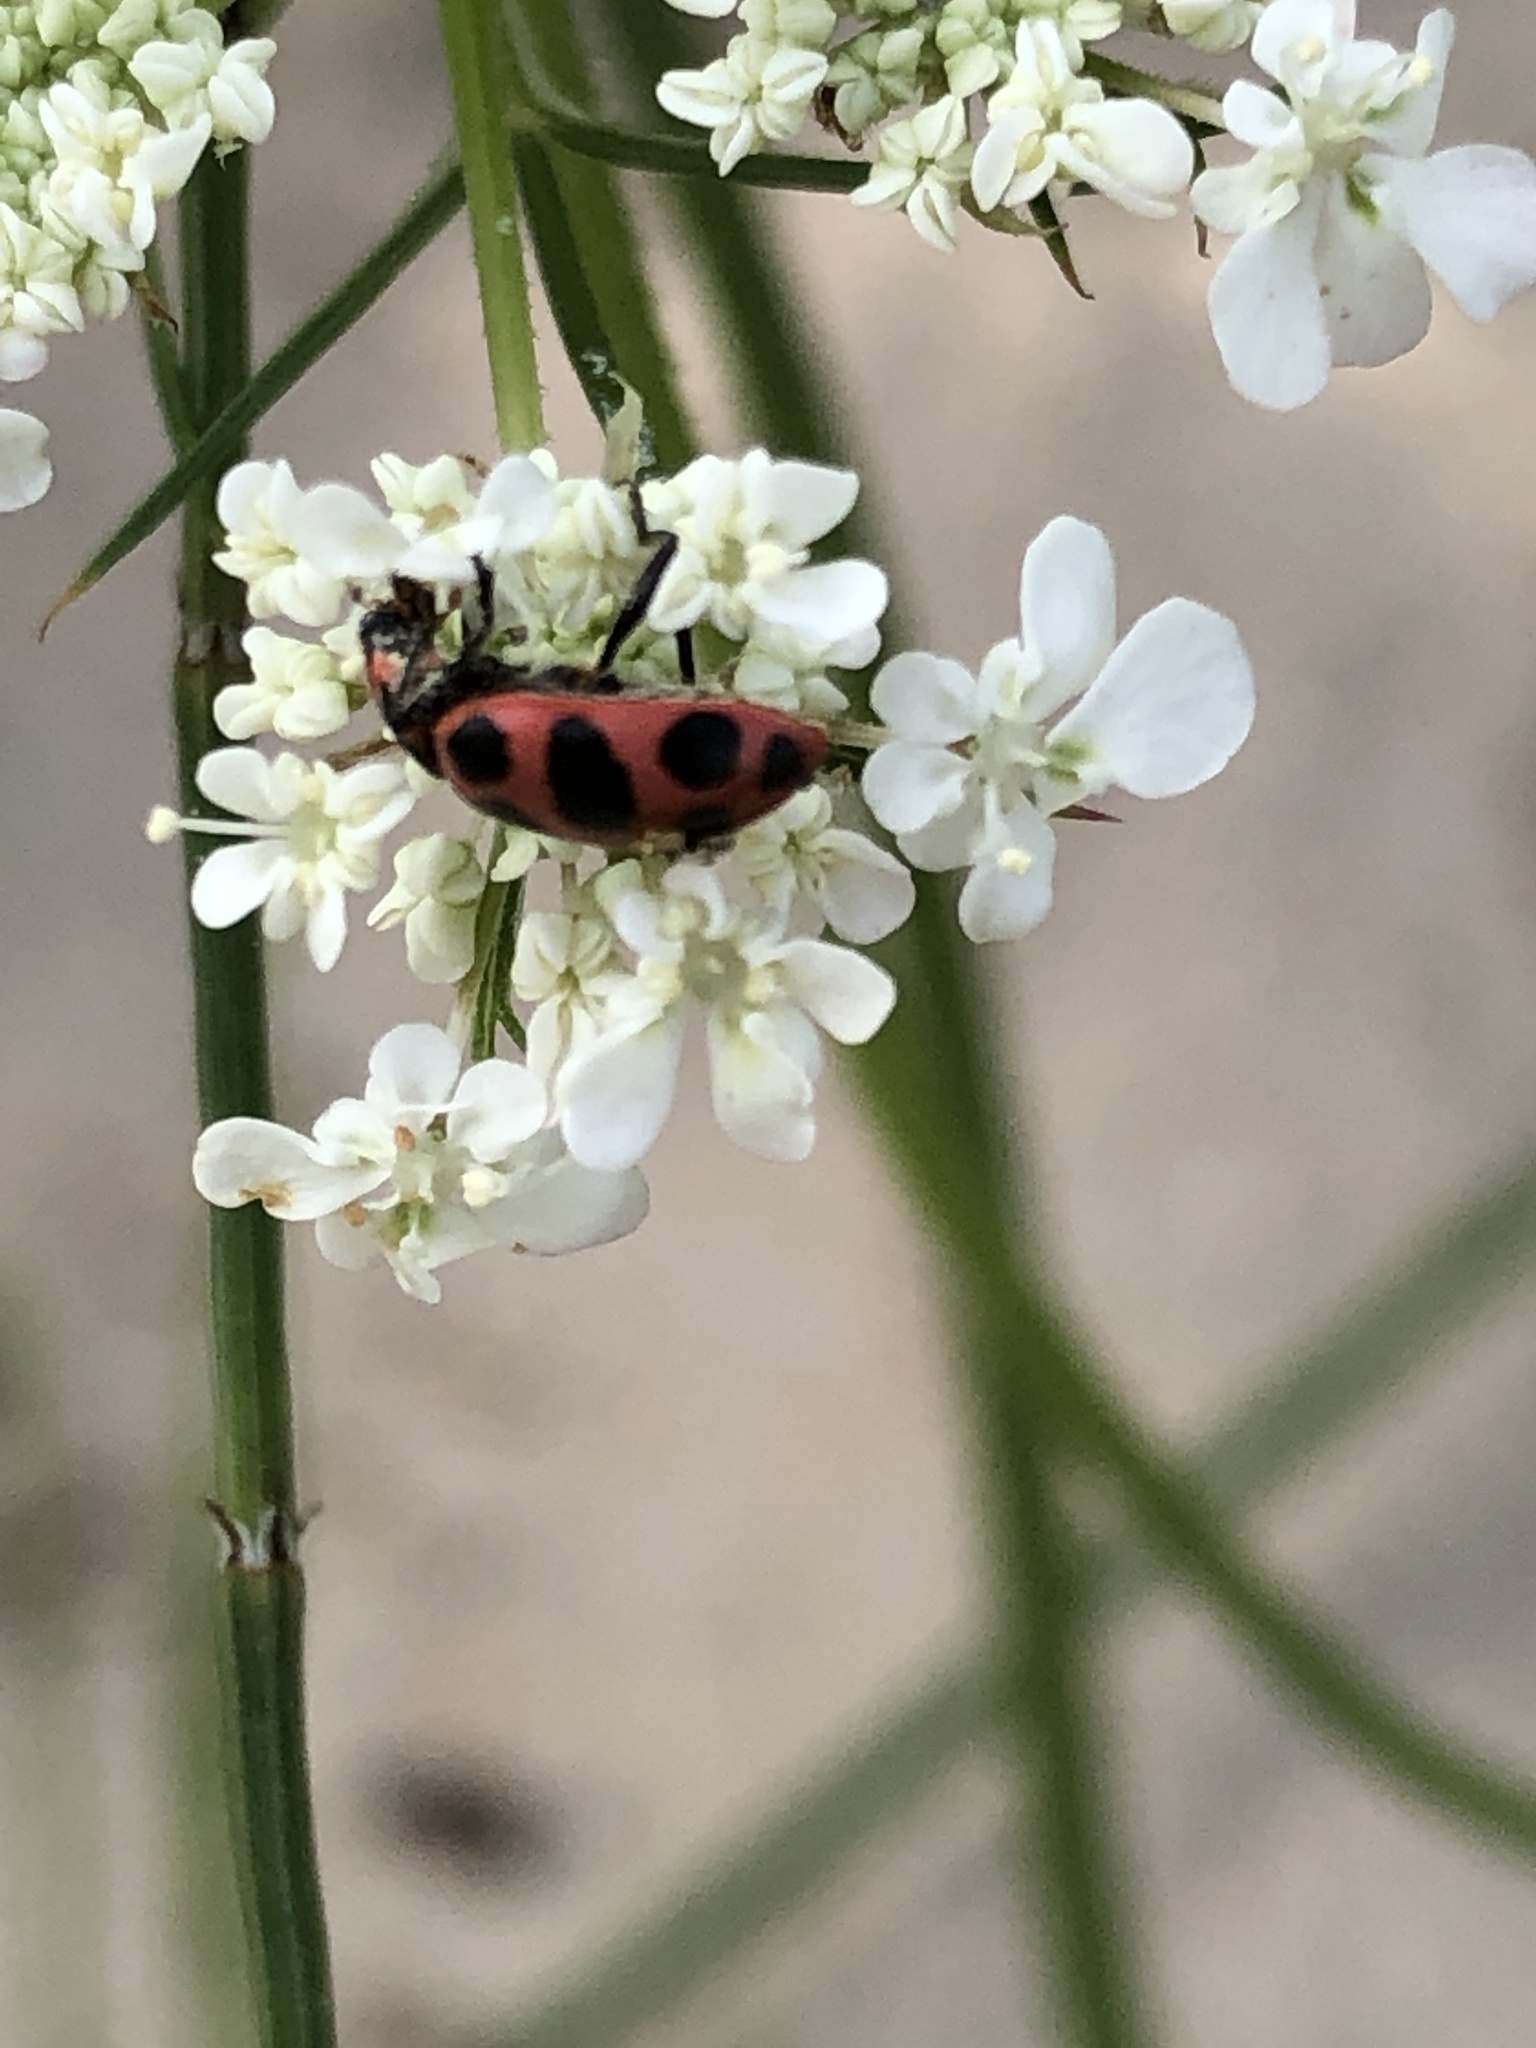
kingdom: Animalia
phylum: Arthropoda
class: Insecta
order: Coleoptera
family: Coccinellidae
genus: Coleomegilla
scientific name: Coleomegilla maculata
